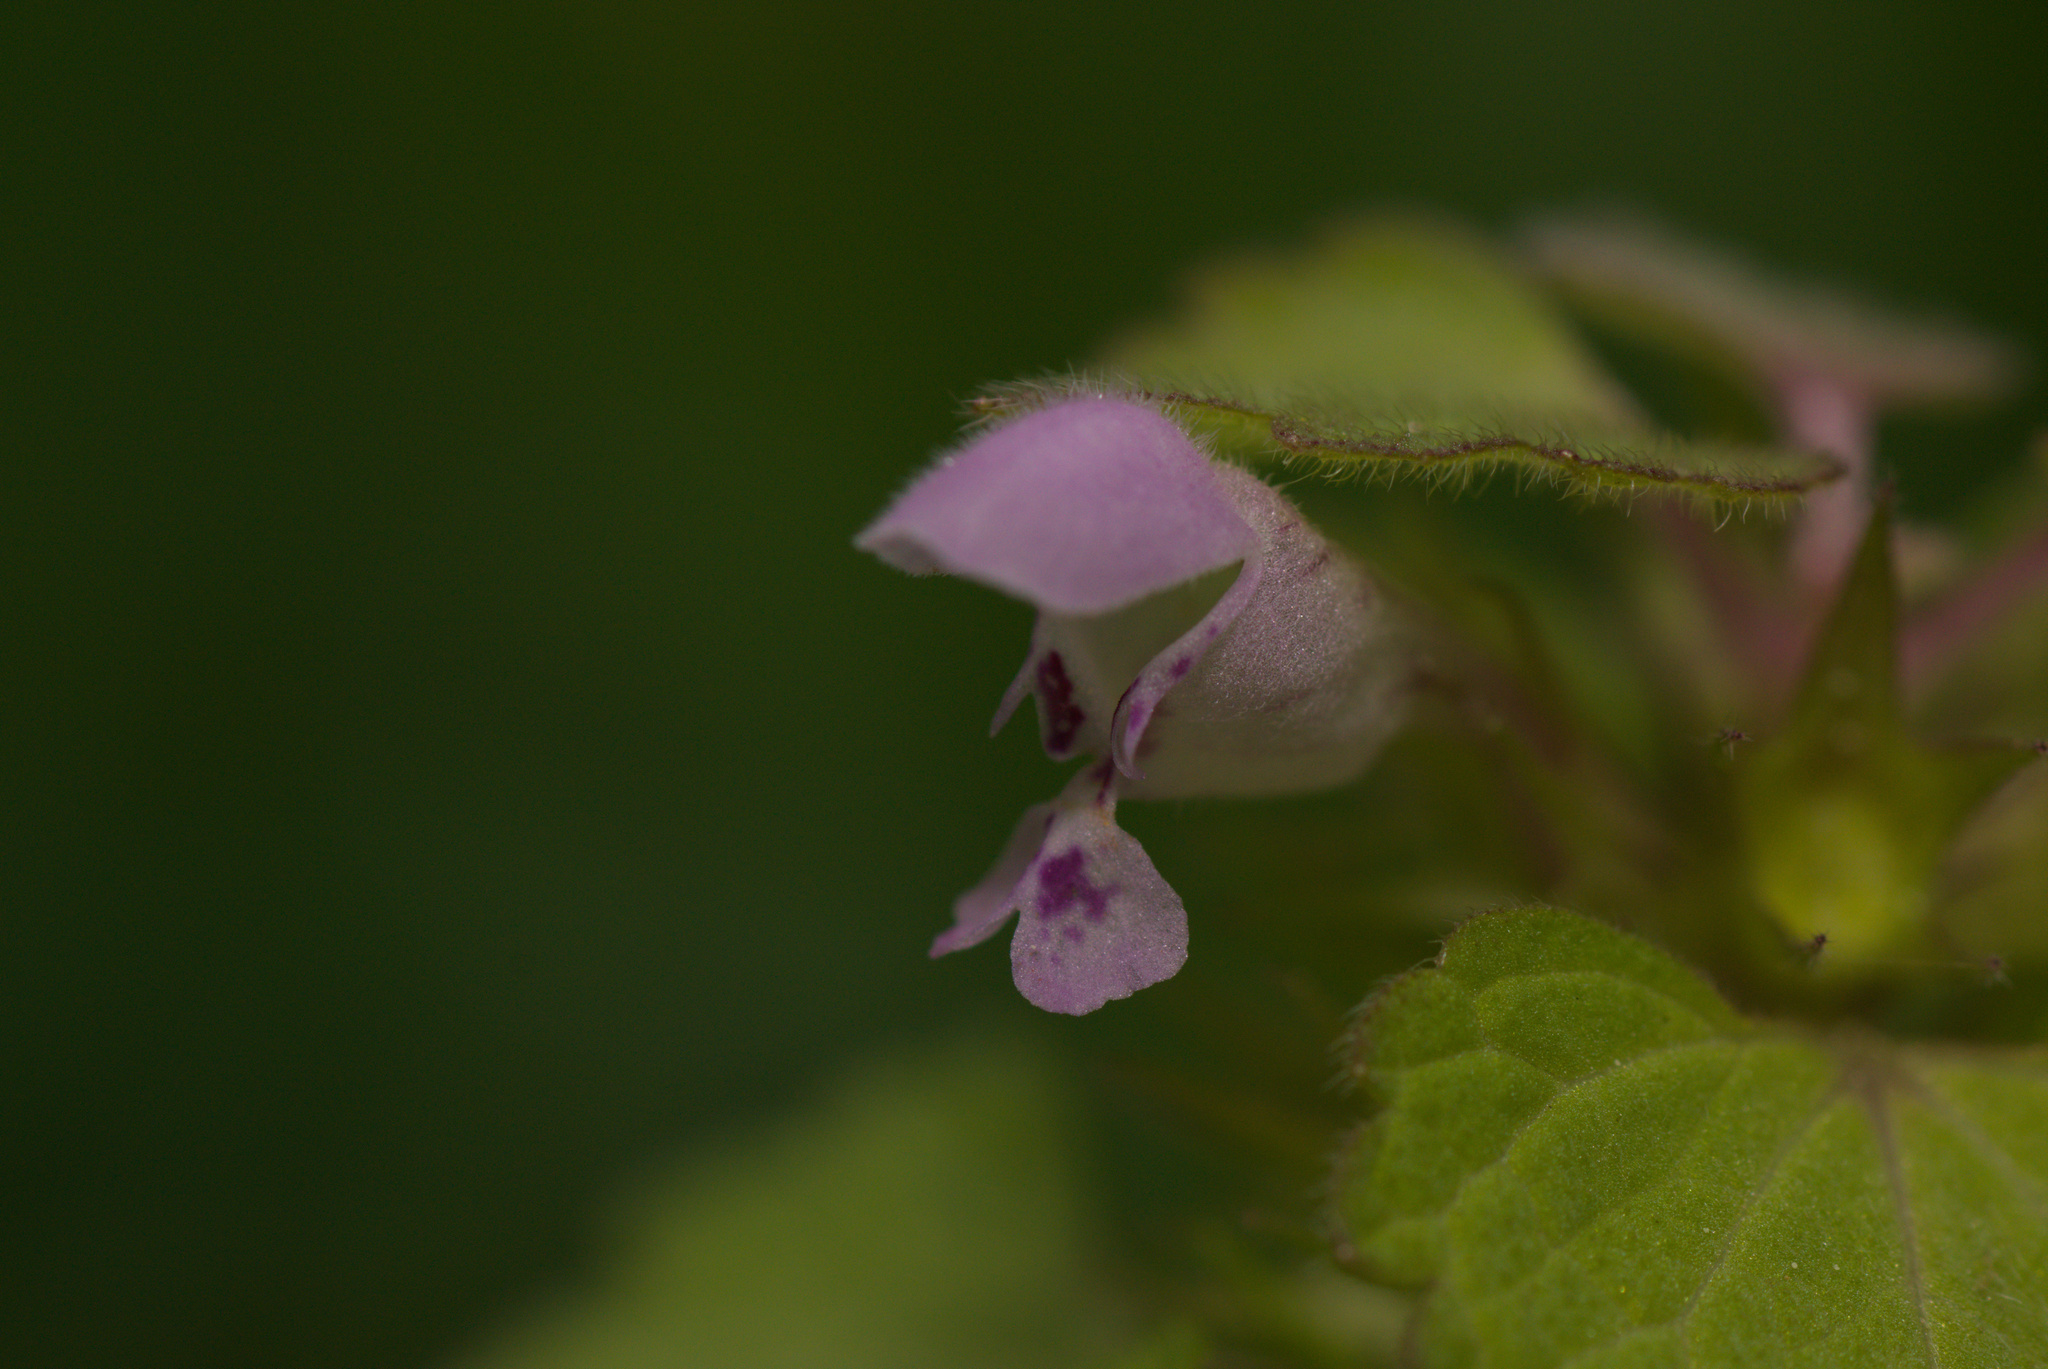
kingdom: Plantae
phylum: Tracheophyta
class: Magnoliopsida
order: Lamiales
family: Lamiaceae
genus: Lamium
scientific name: Lamium purpureum
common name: Red dead-nettle
